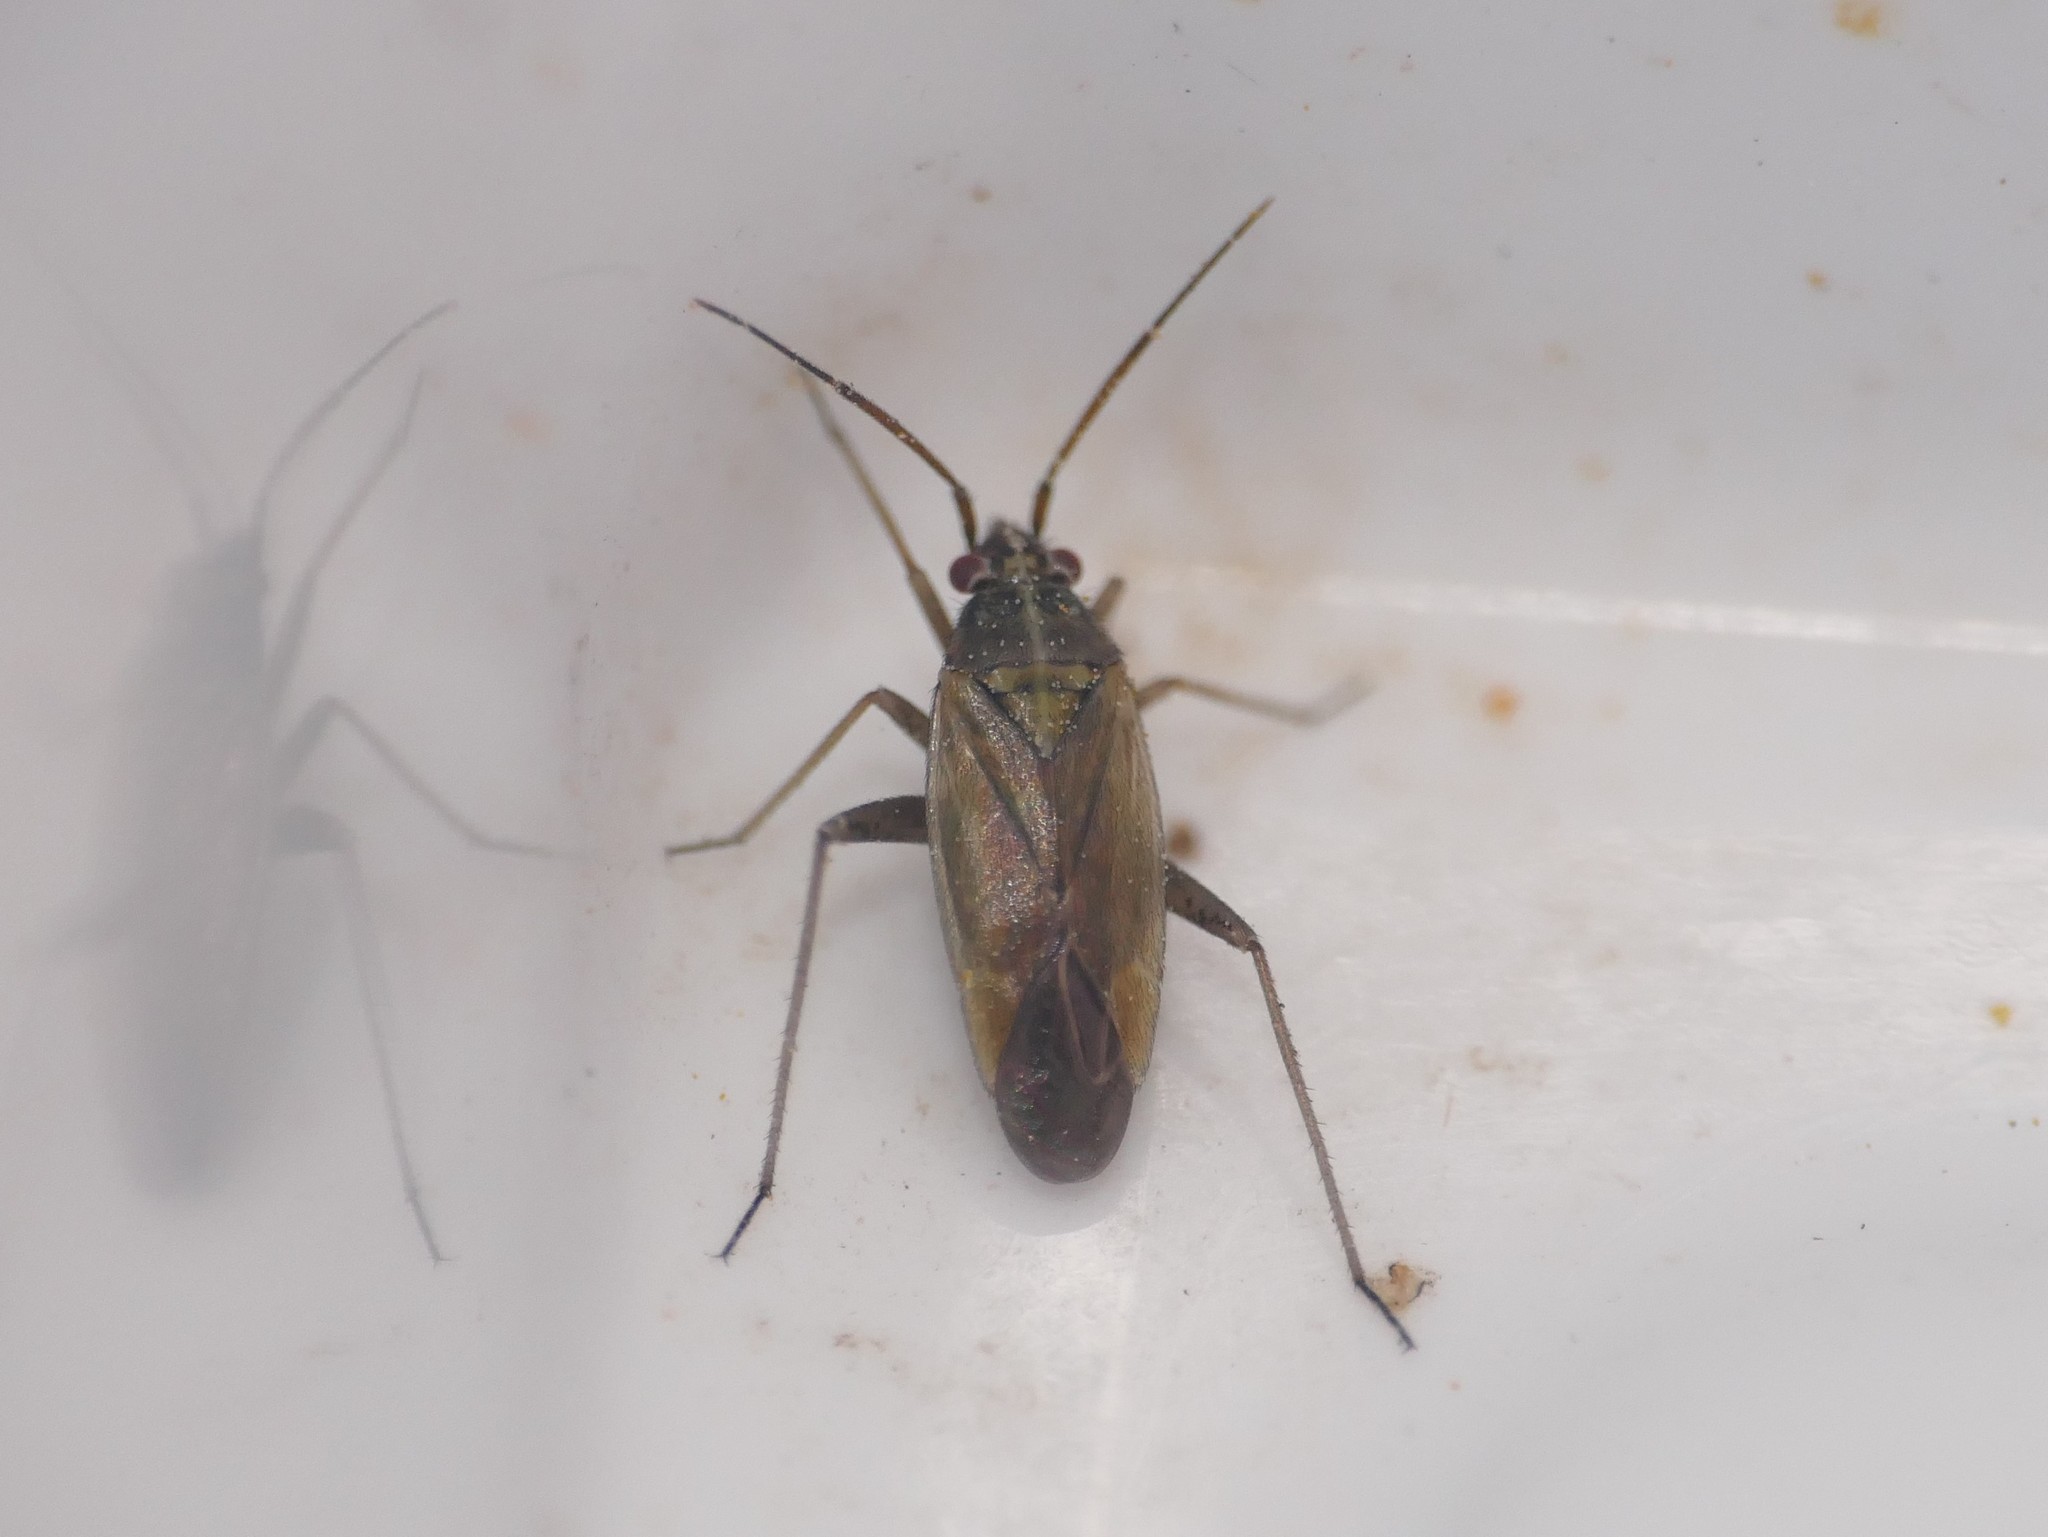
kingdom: Animalia
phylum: Arthropoda
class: Insecta
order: Hemiptera
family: Miridae
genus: Thermocoris
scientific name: Thermocoris munieri
